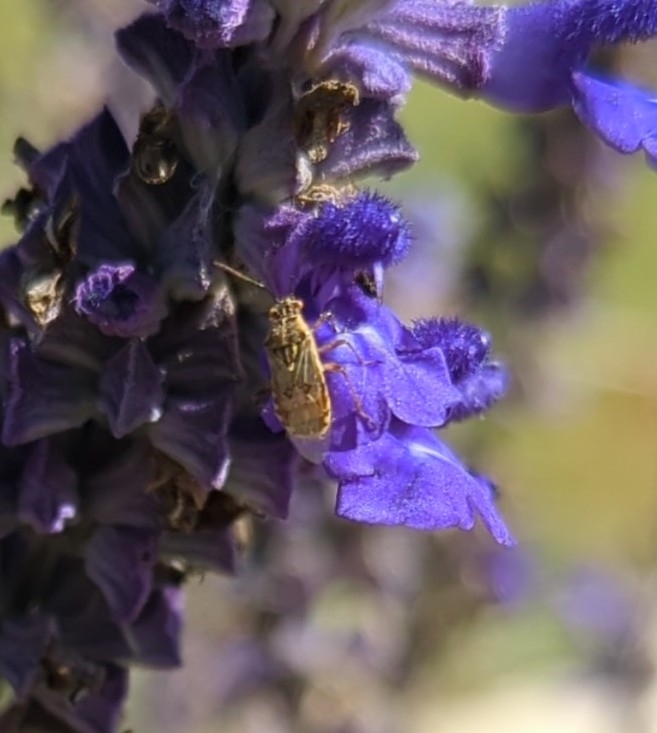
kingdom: Animalia
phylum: Arthropoda
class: Insecta
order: Hemiptera
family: Rhopalidae
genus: Liorhyssus
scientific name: Liorhyssus hyalinus
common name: Scentless plant bug
